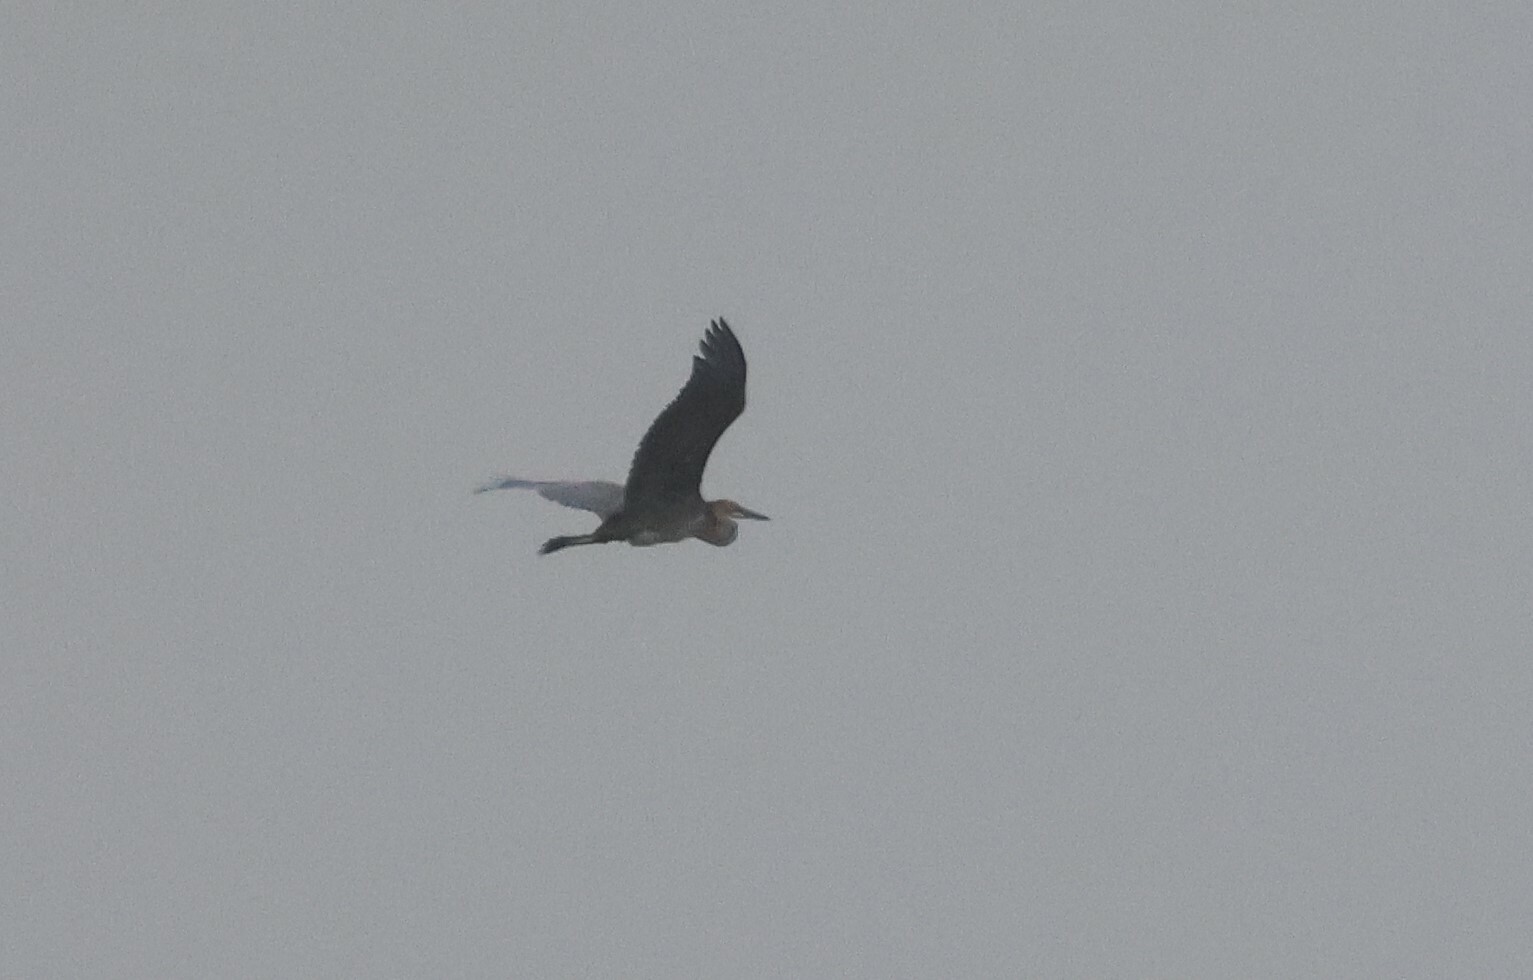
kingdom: Animalia
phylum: Chordata
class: Aves
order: Pelecaniformes
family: Ardeidae
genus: Ardea
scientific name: Ardea goliath
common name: Goliath heron
